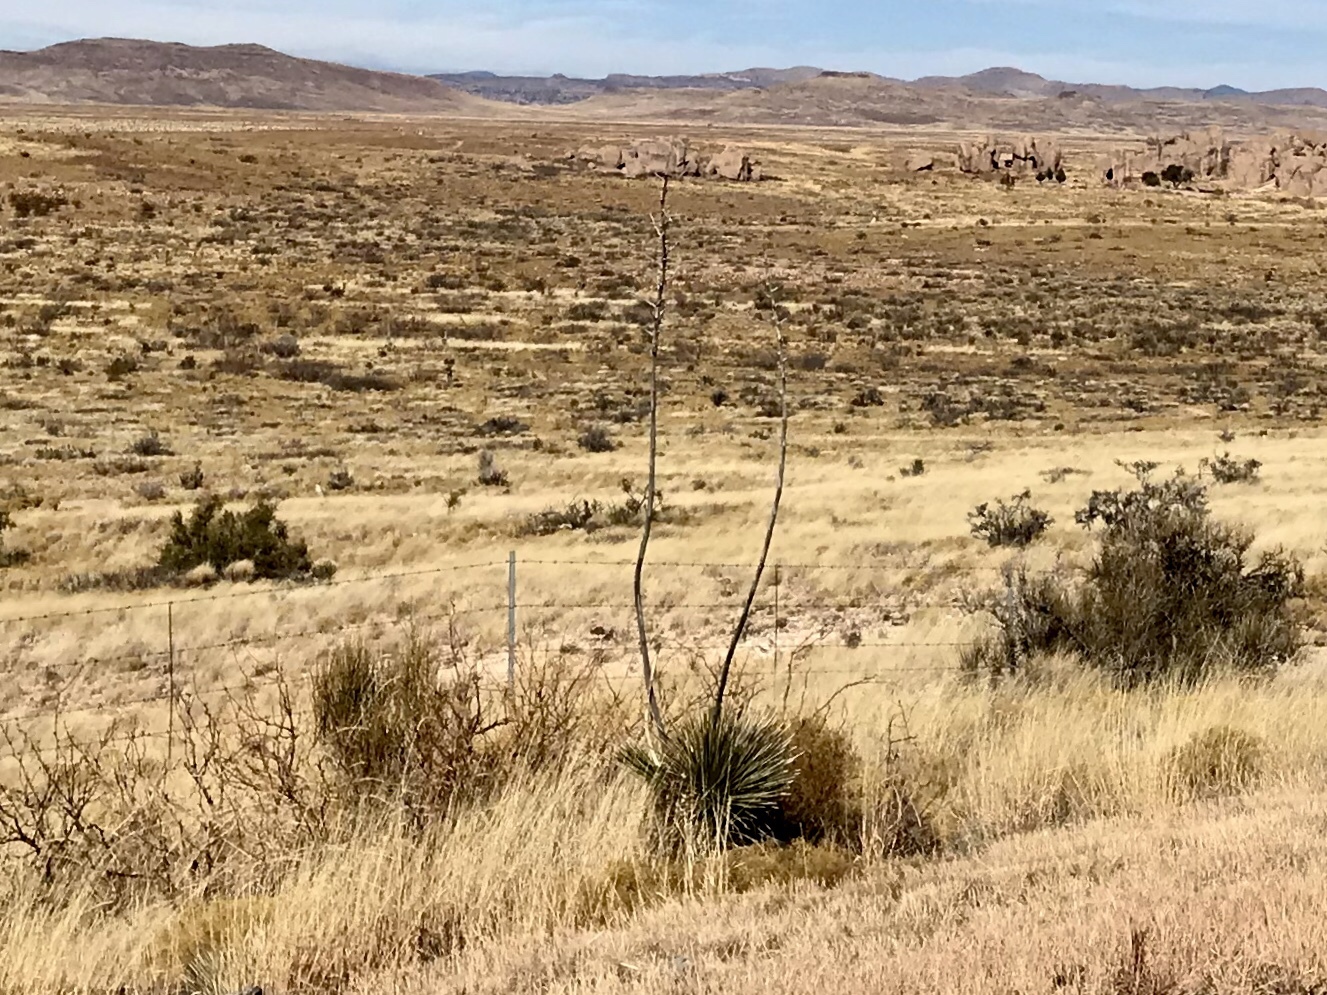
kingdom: Plantae
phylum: Tracheophyta
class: Liliopsida
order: Asparagales
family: Asparagaceae
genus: Yucca
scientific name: Yucca elata
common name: Palmella
